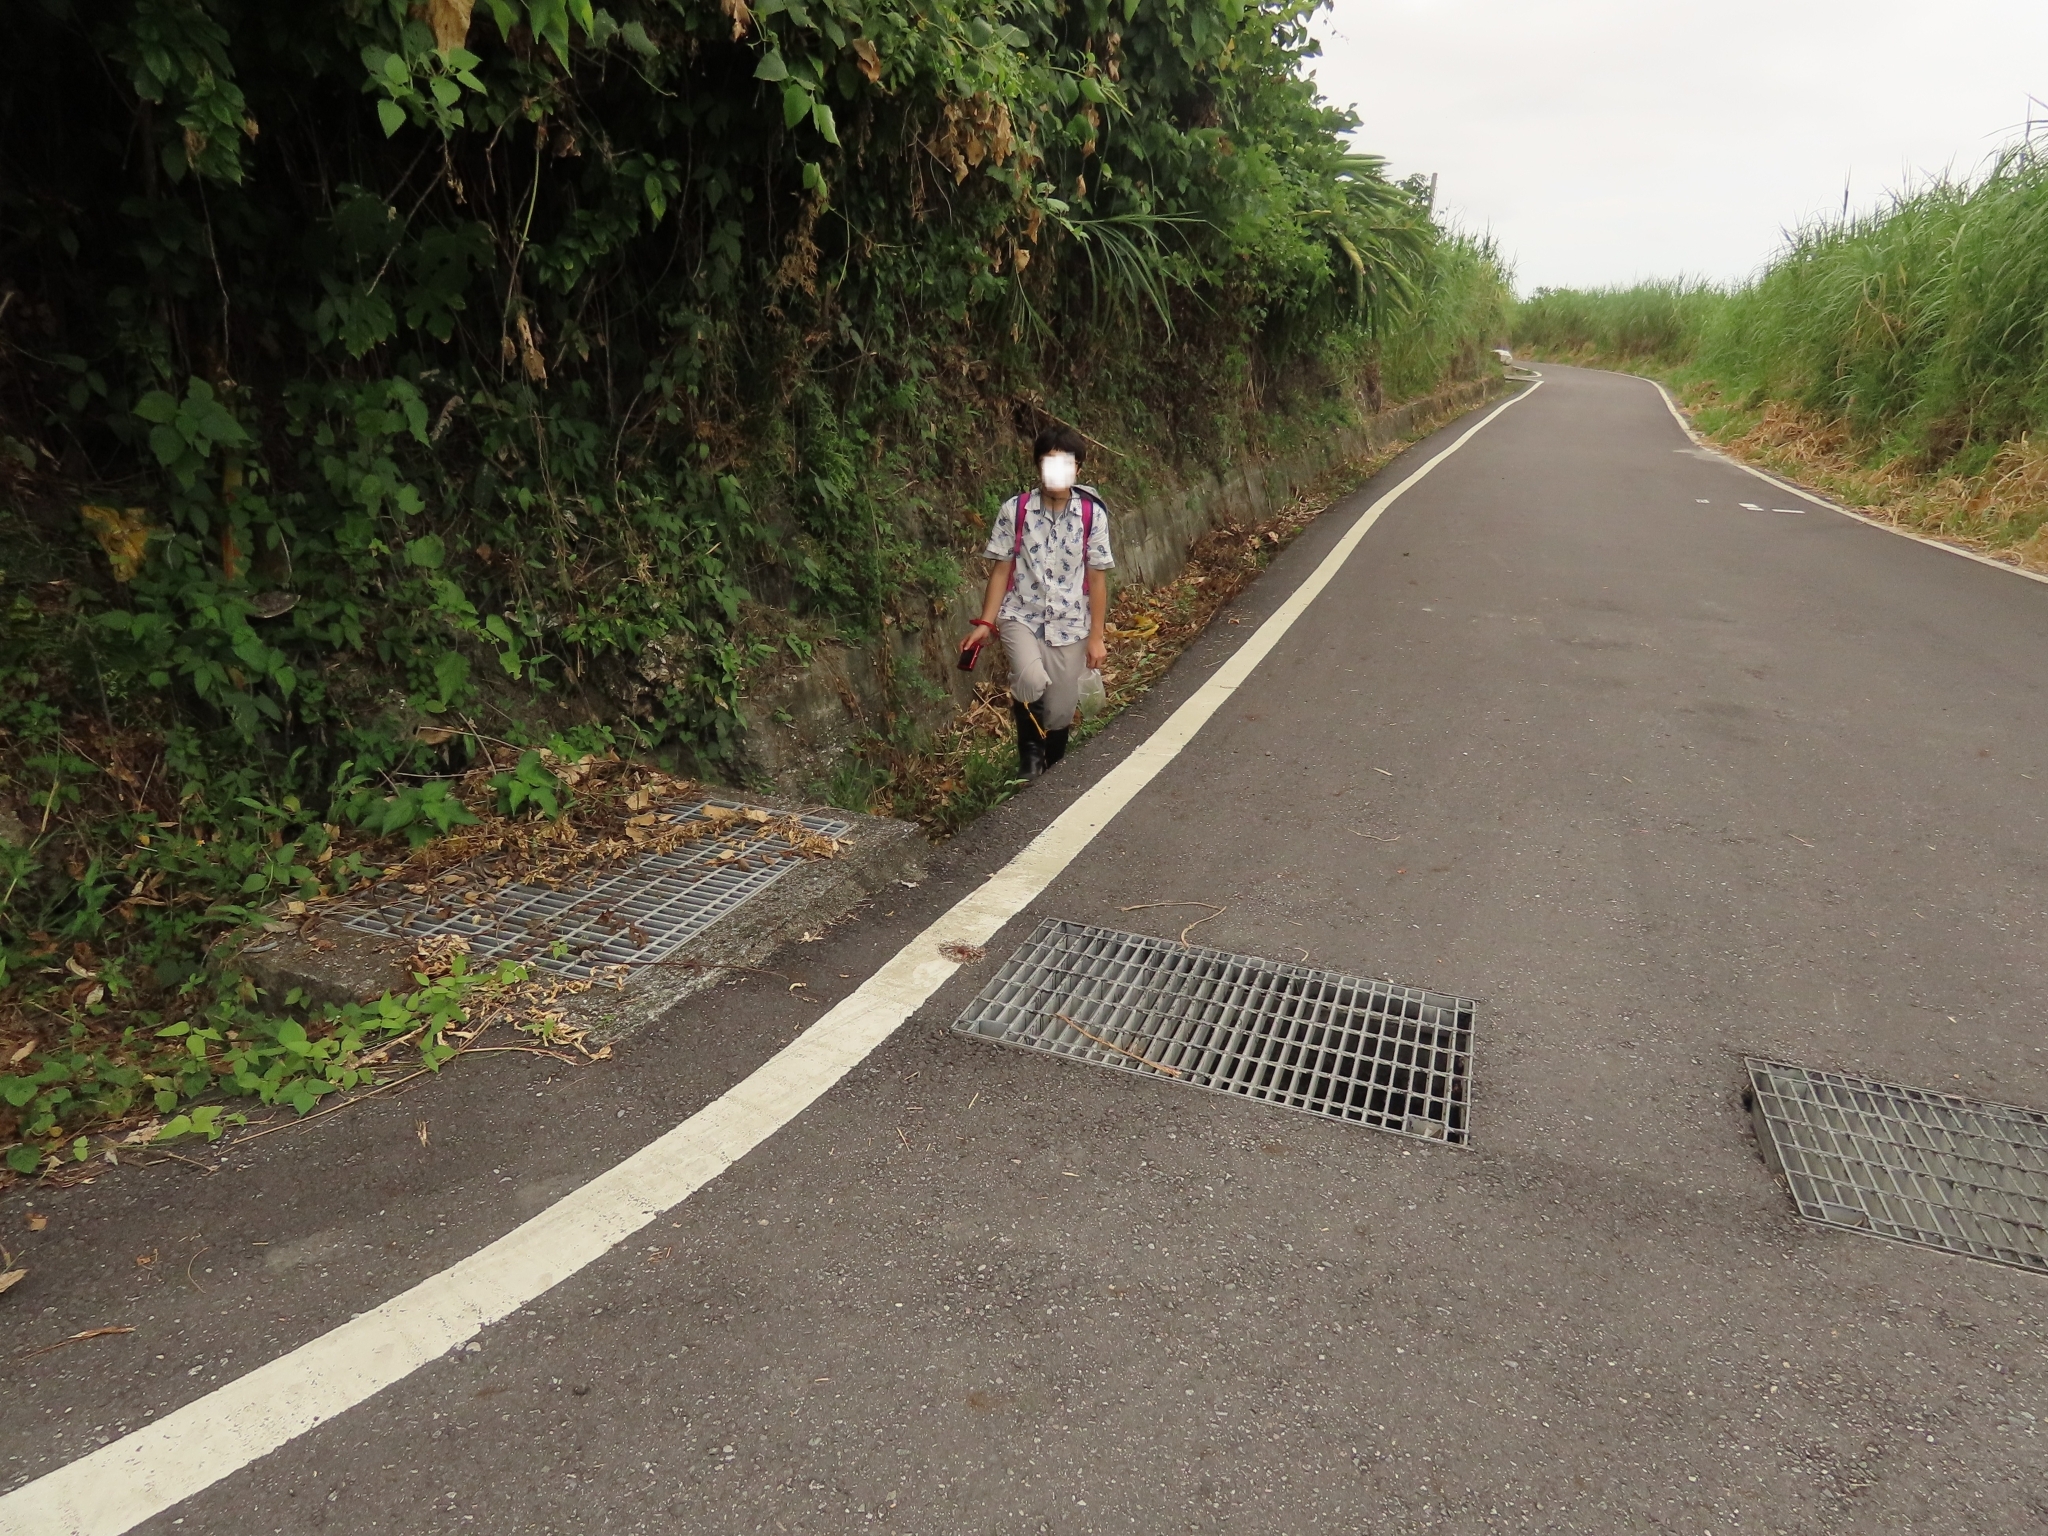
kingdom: Animalia
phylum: Arthropoda
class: Malacostraca
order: Decapoda
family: Sesarmidae
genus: Sesarmops
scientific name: Sesarmops imperator
